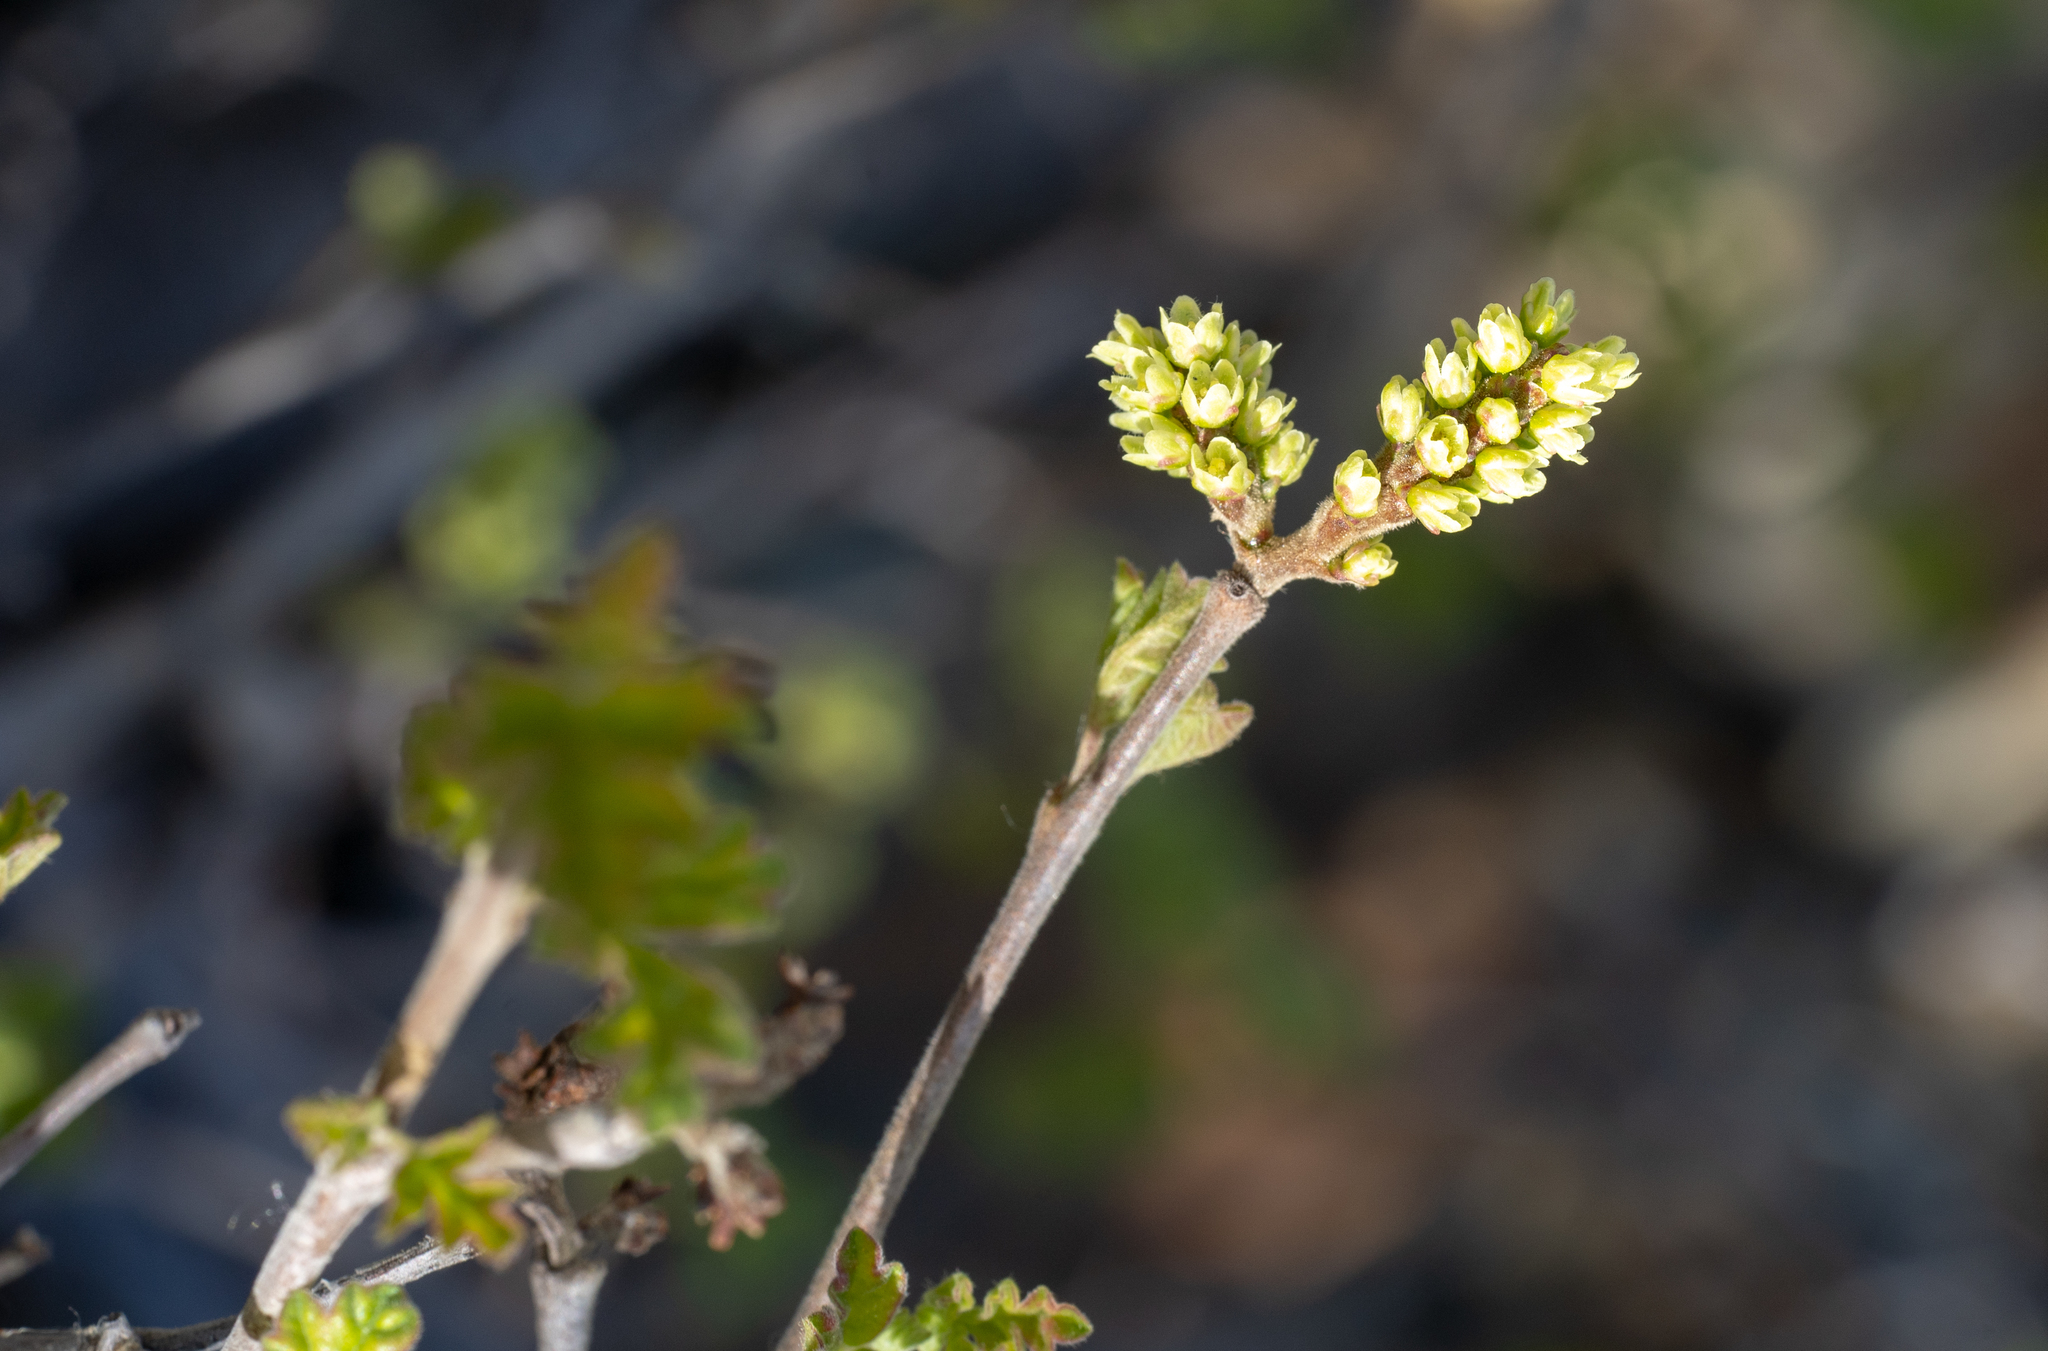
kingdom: Plantae
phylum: Tracheophyta
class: Magnoliopsida
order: Sapindales
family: Anacardiaceae
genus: Rhus
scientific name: Rhus aromatica
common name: Aromatic sumac
